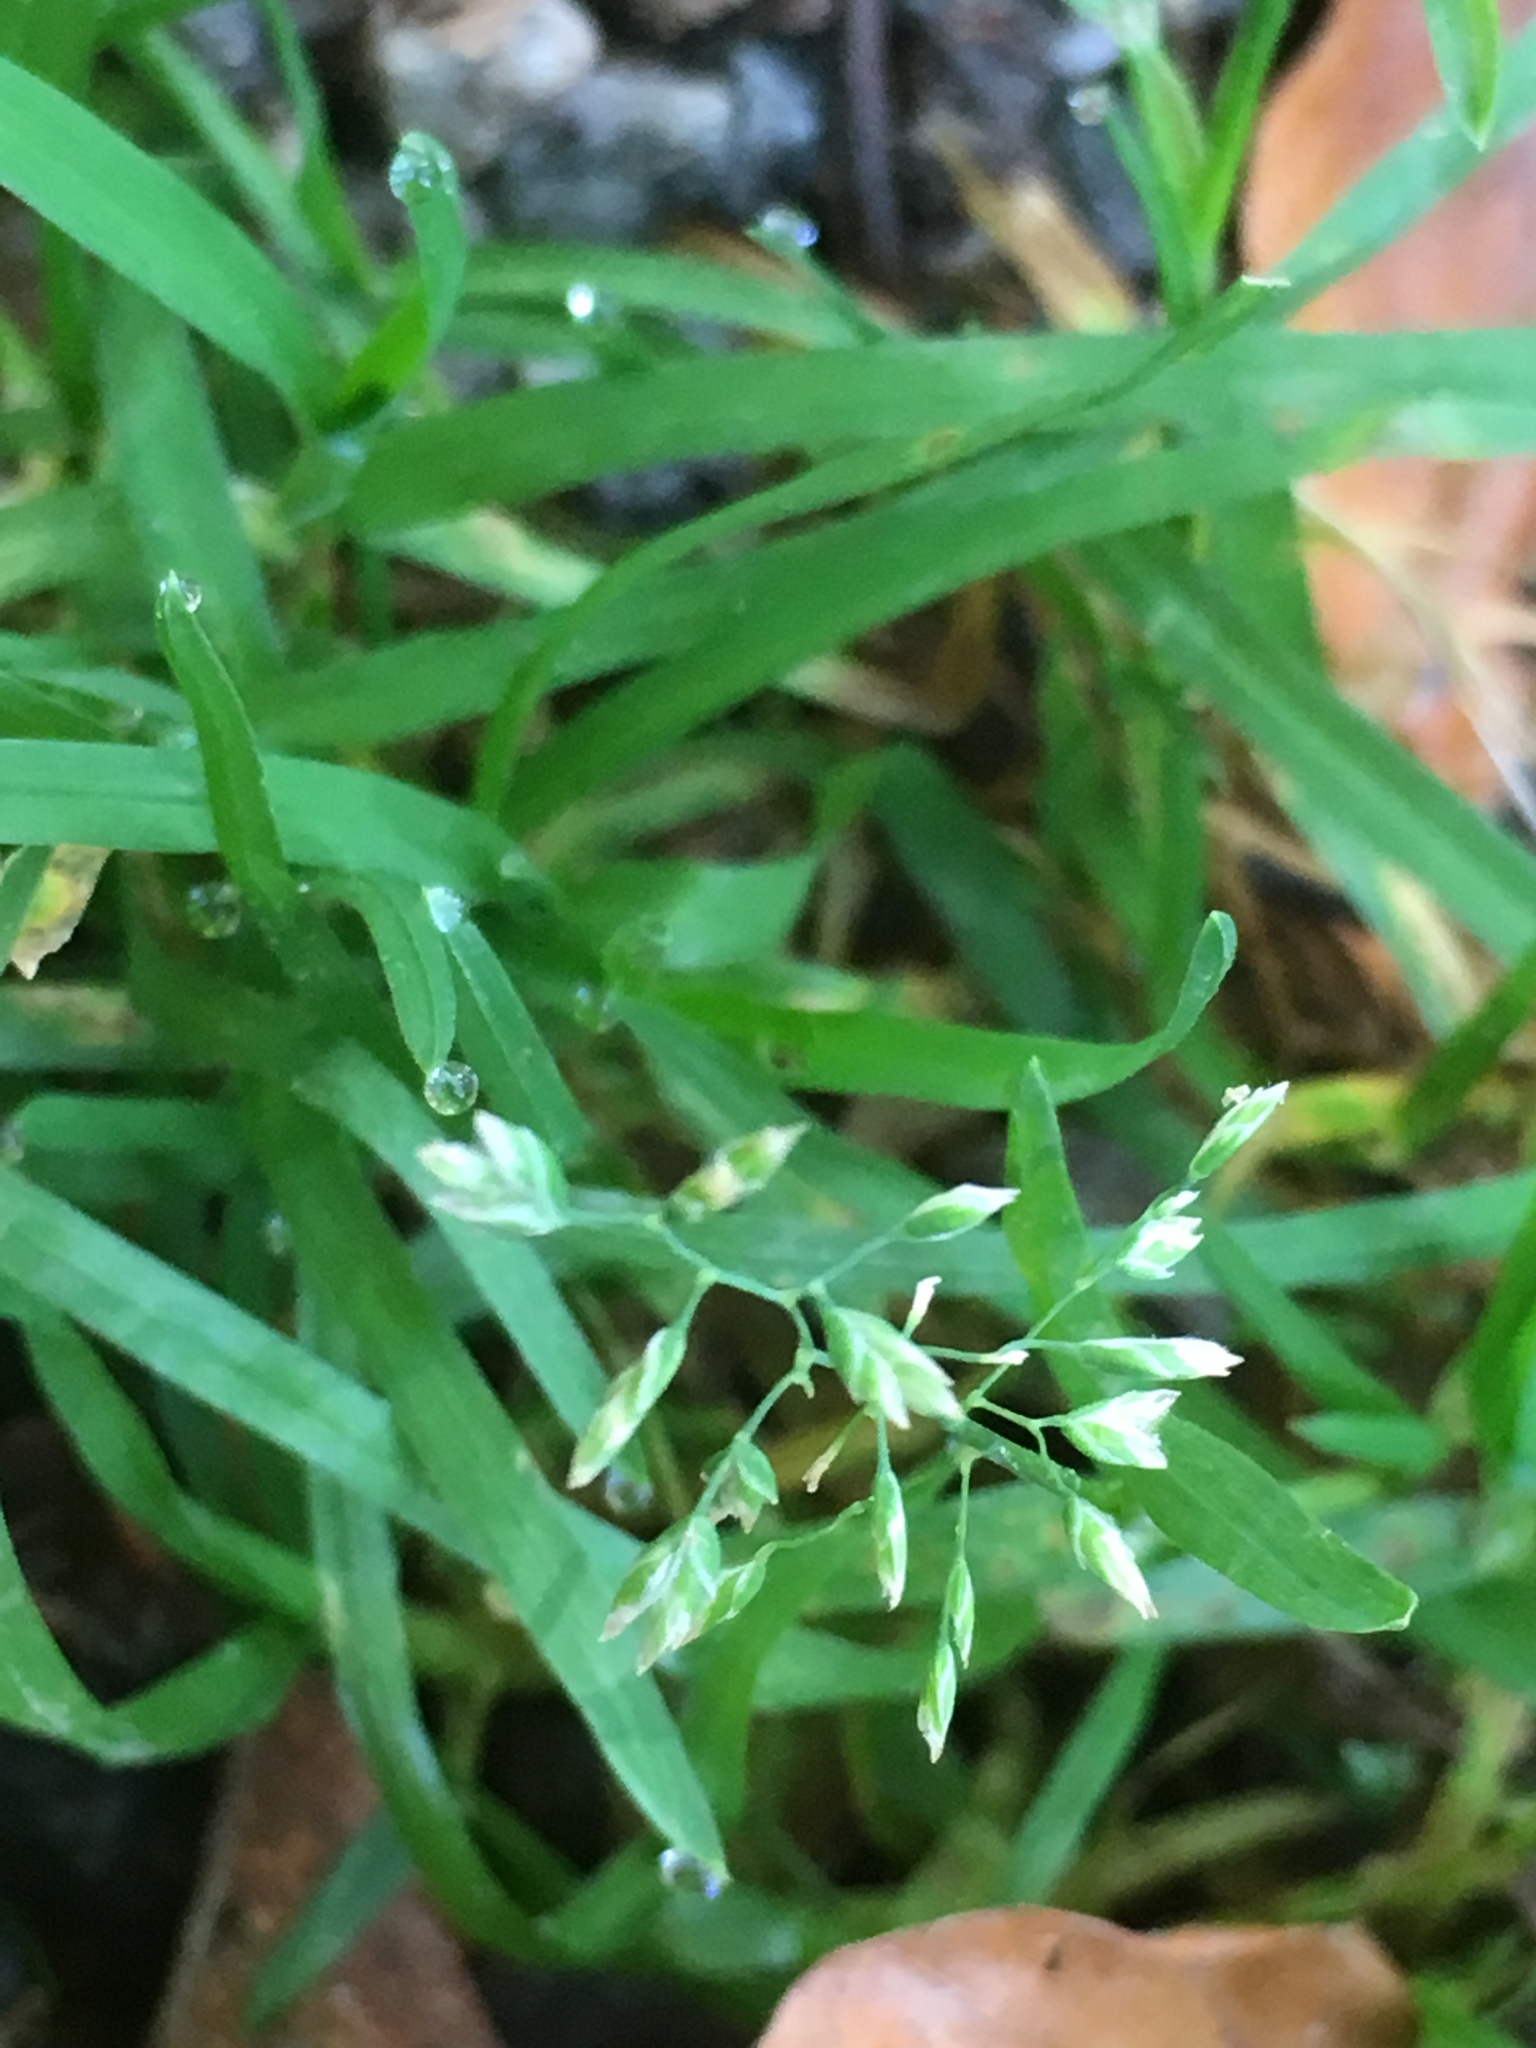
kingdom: Plantae
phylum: Tracheophyta
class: Liliopsida
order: Poales
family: Poaceae
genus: Poa
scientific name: Poa annua
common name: Annual bluegrass
